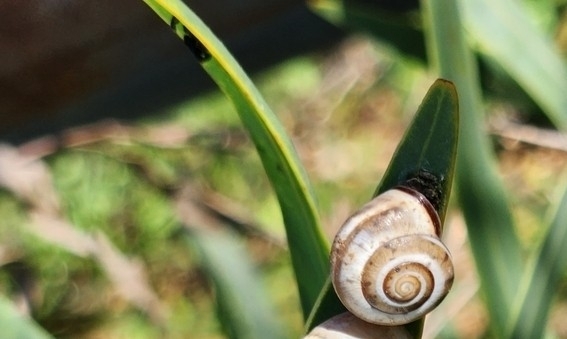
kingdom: Animalia
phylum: Mollusca
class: Gastropoda
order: Stylommatophora
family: Hygromiidae
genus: Monacha
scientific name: Monacha syriaca
